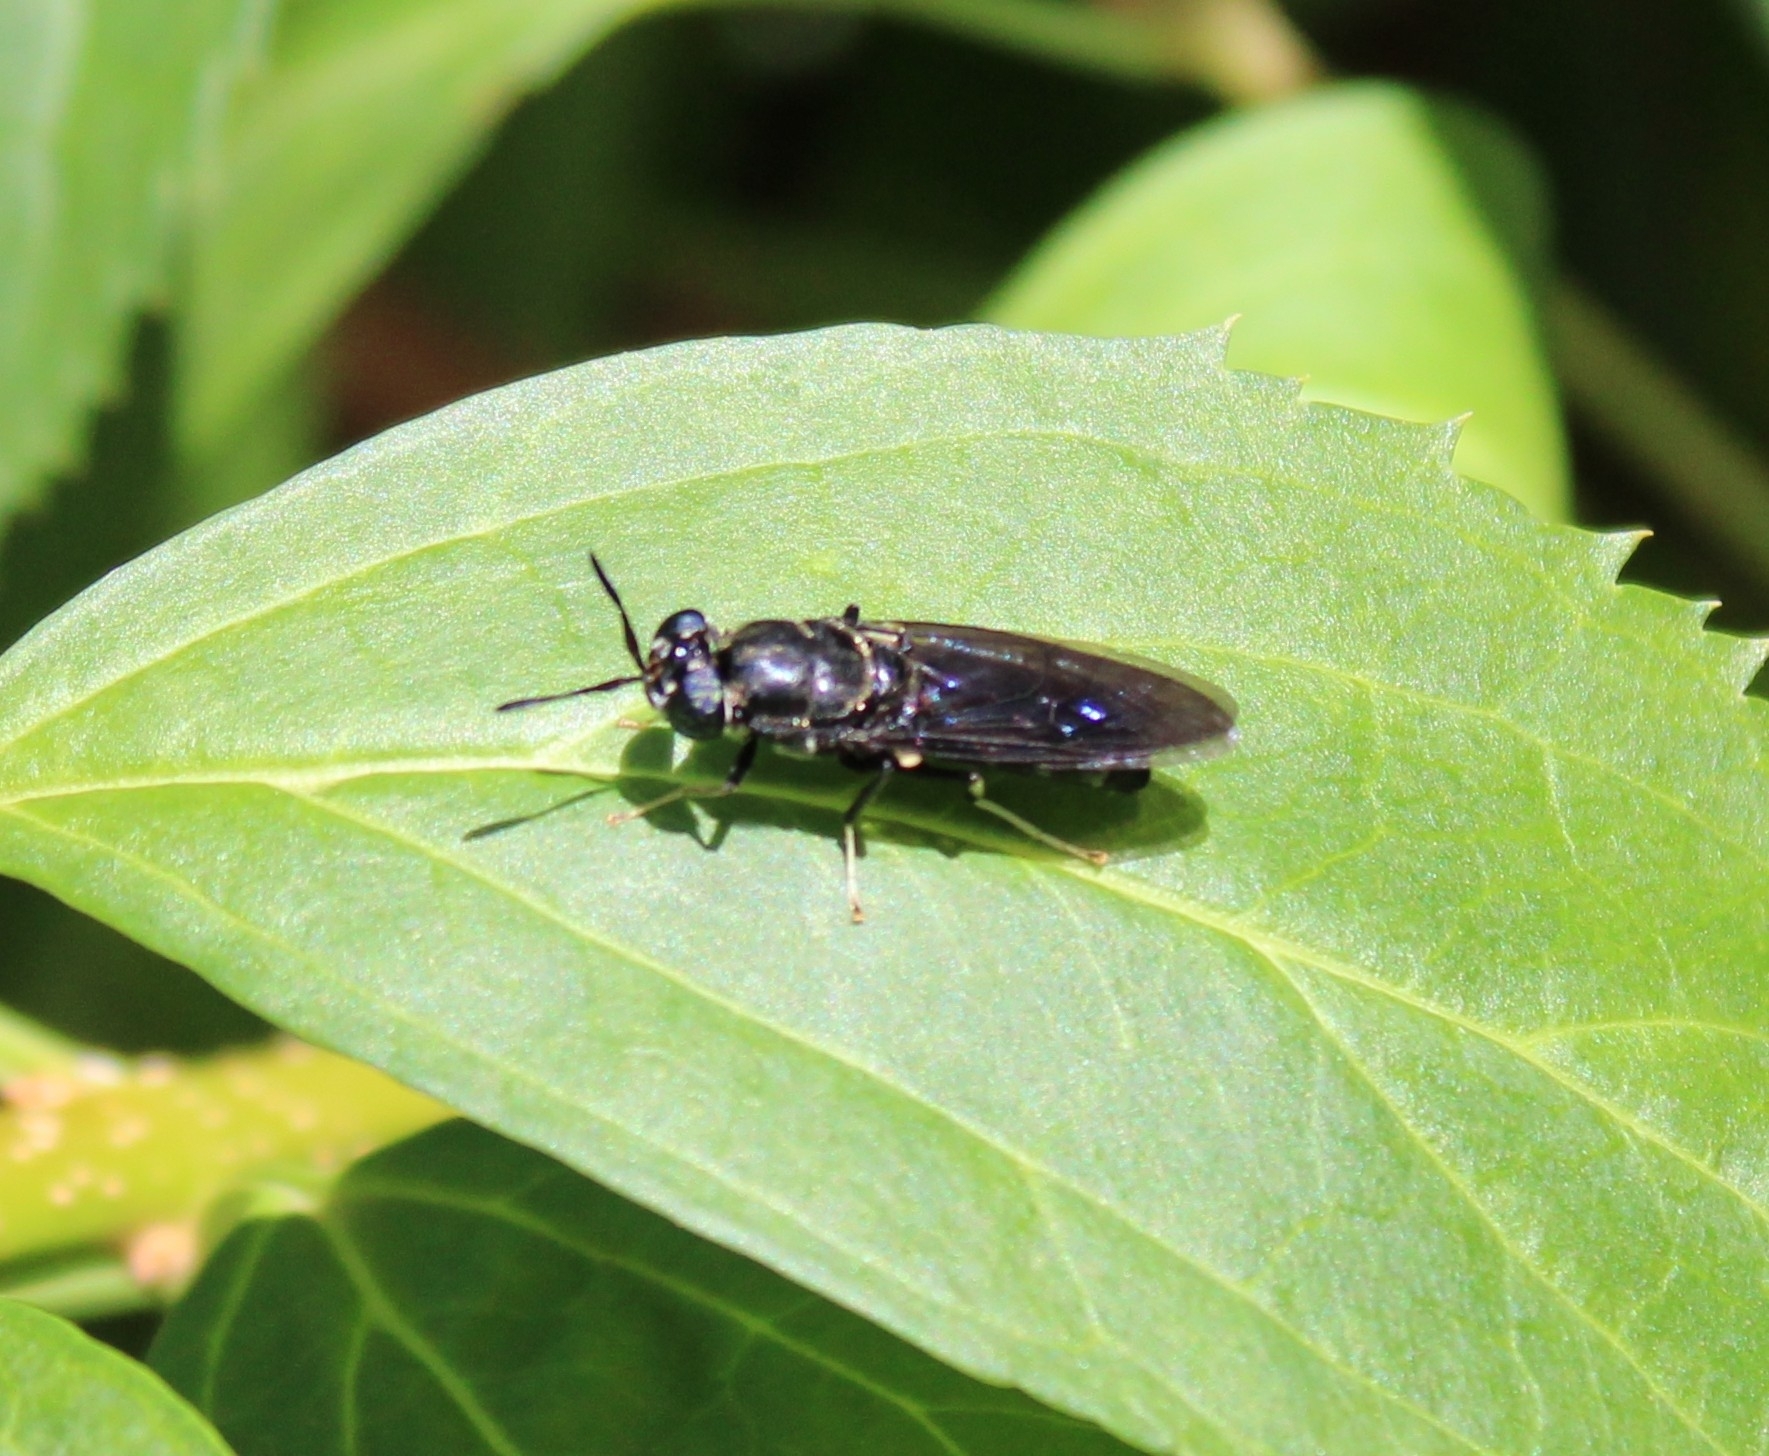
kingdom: Animalia
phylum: Arthropoda
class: Insecta
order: Diptera
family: Stratiomyidae
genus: Hermetia
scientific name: Hermetia illucens
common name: Black soldier fly
